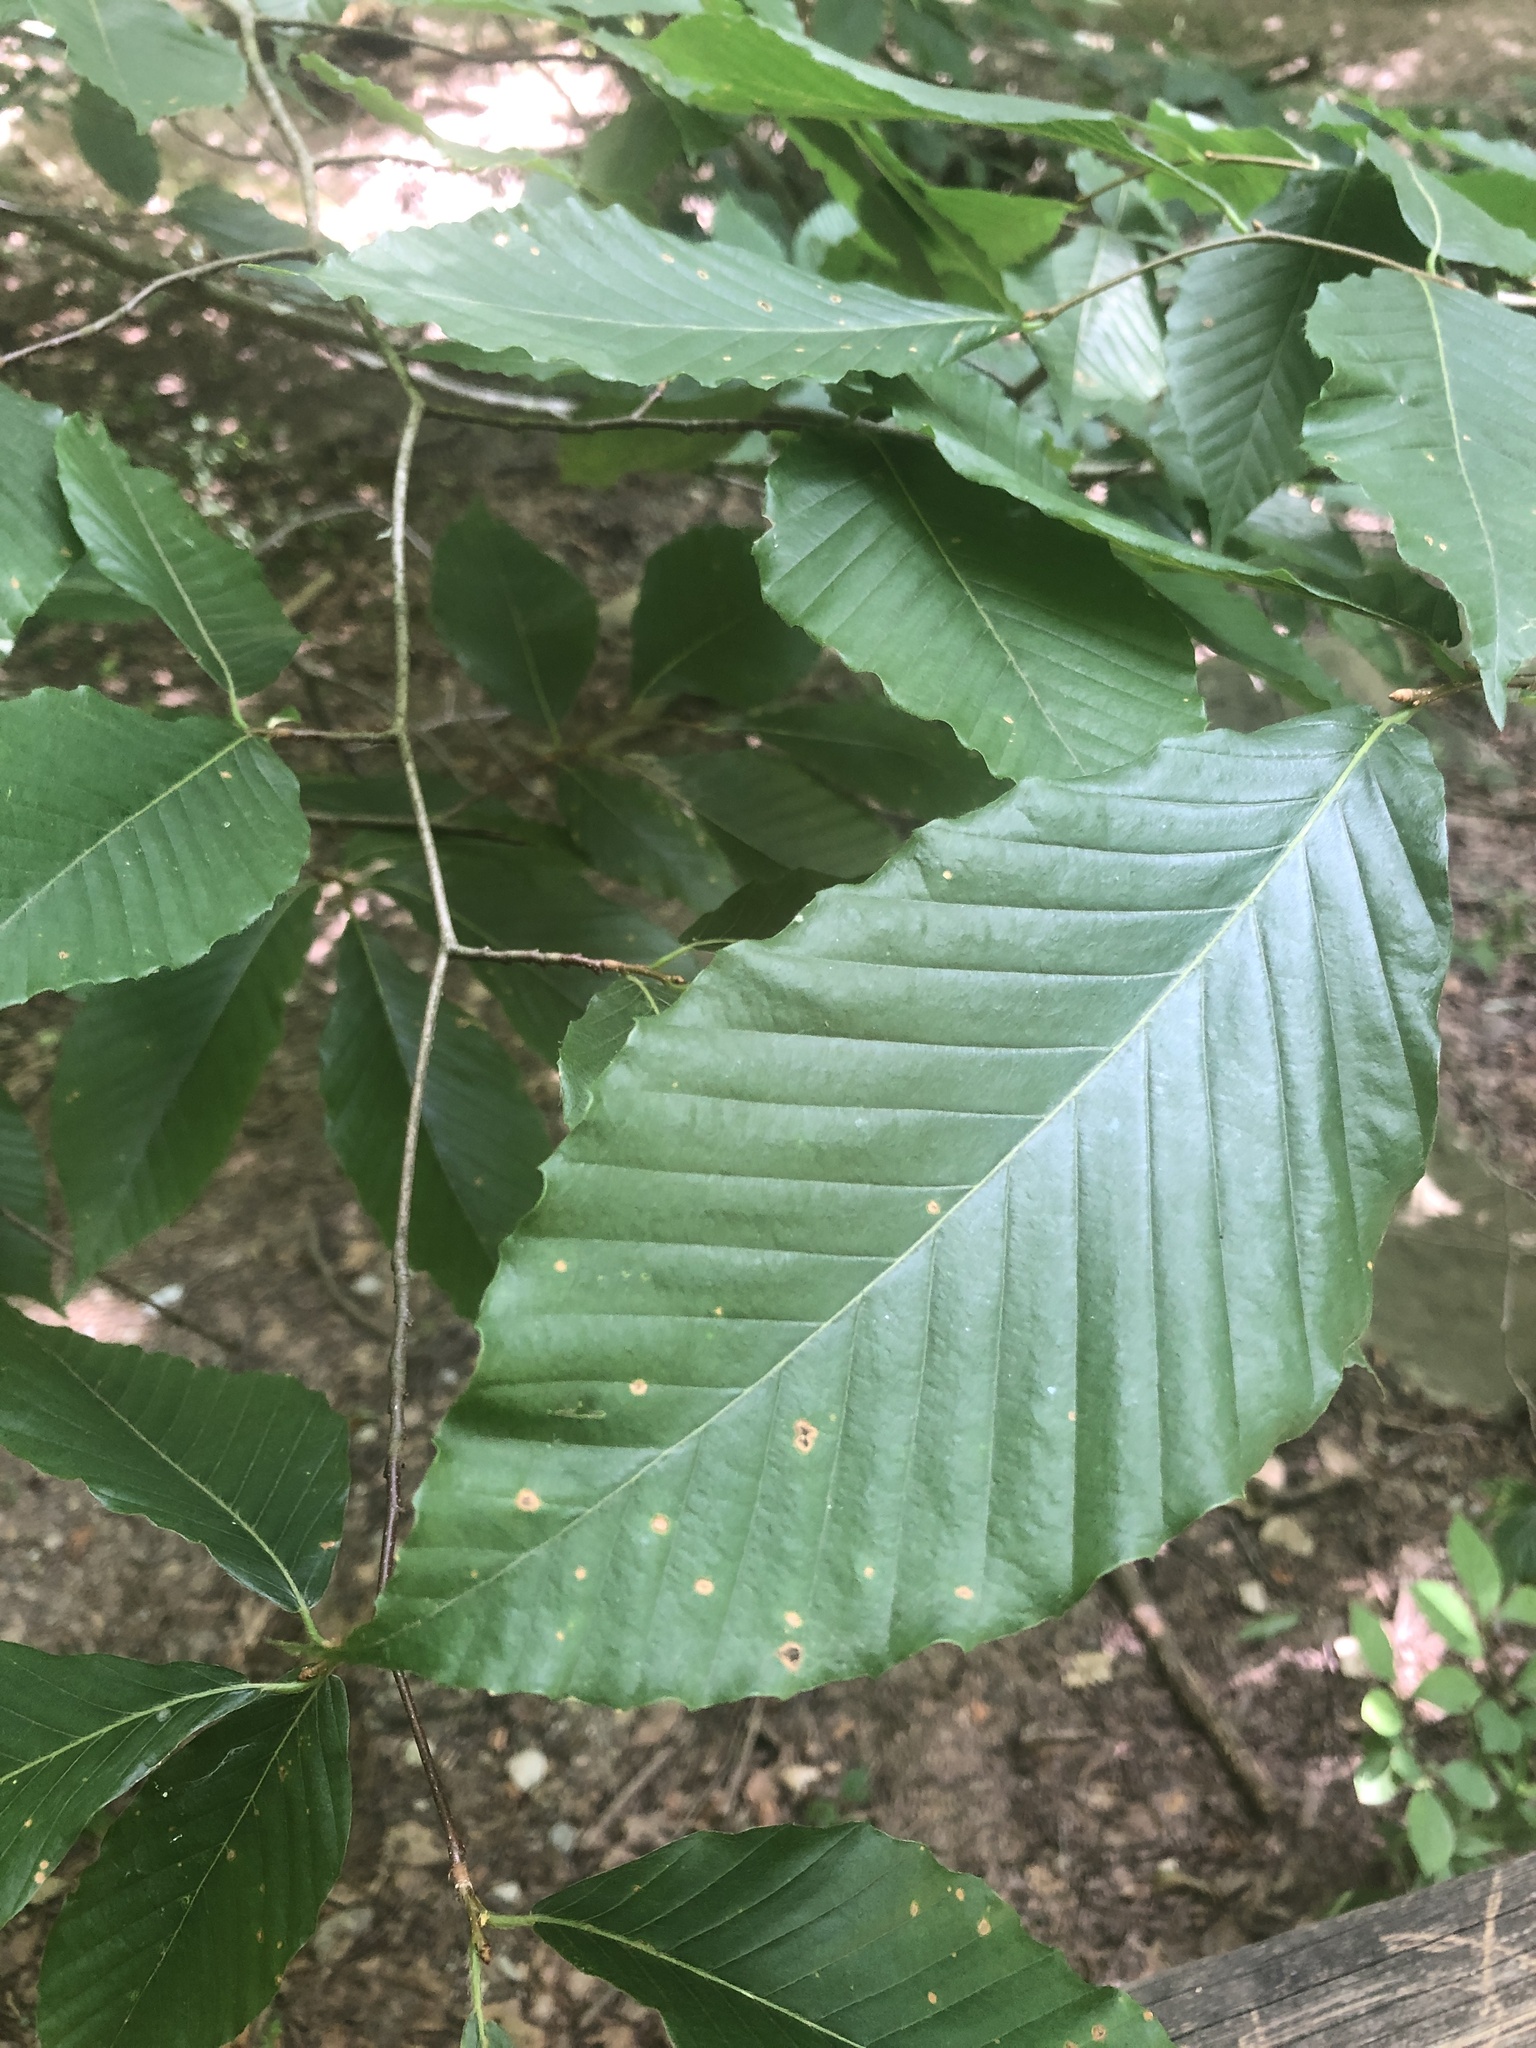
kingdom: Plantae
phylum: Tracheophyta
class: Magnoliopsida
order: Fagales
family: Fagaceae
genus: Fagus
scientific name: Fagus grandifolia
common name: American beech
